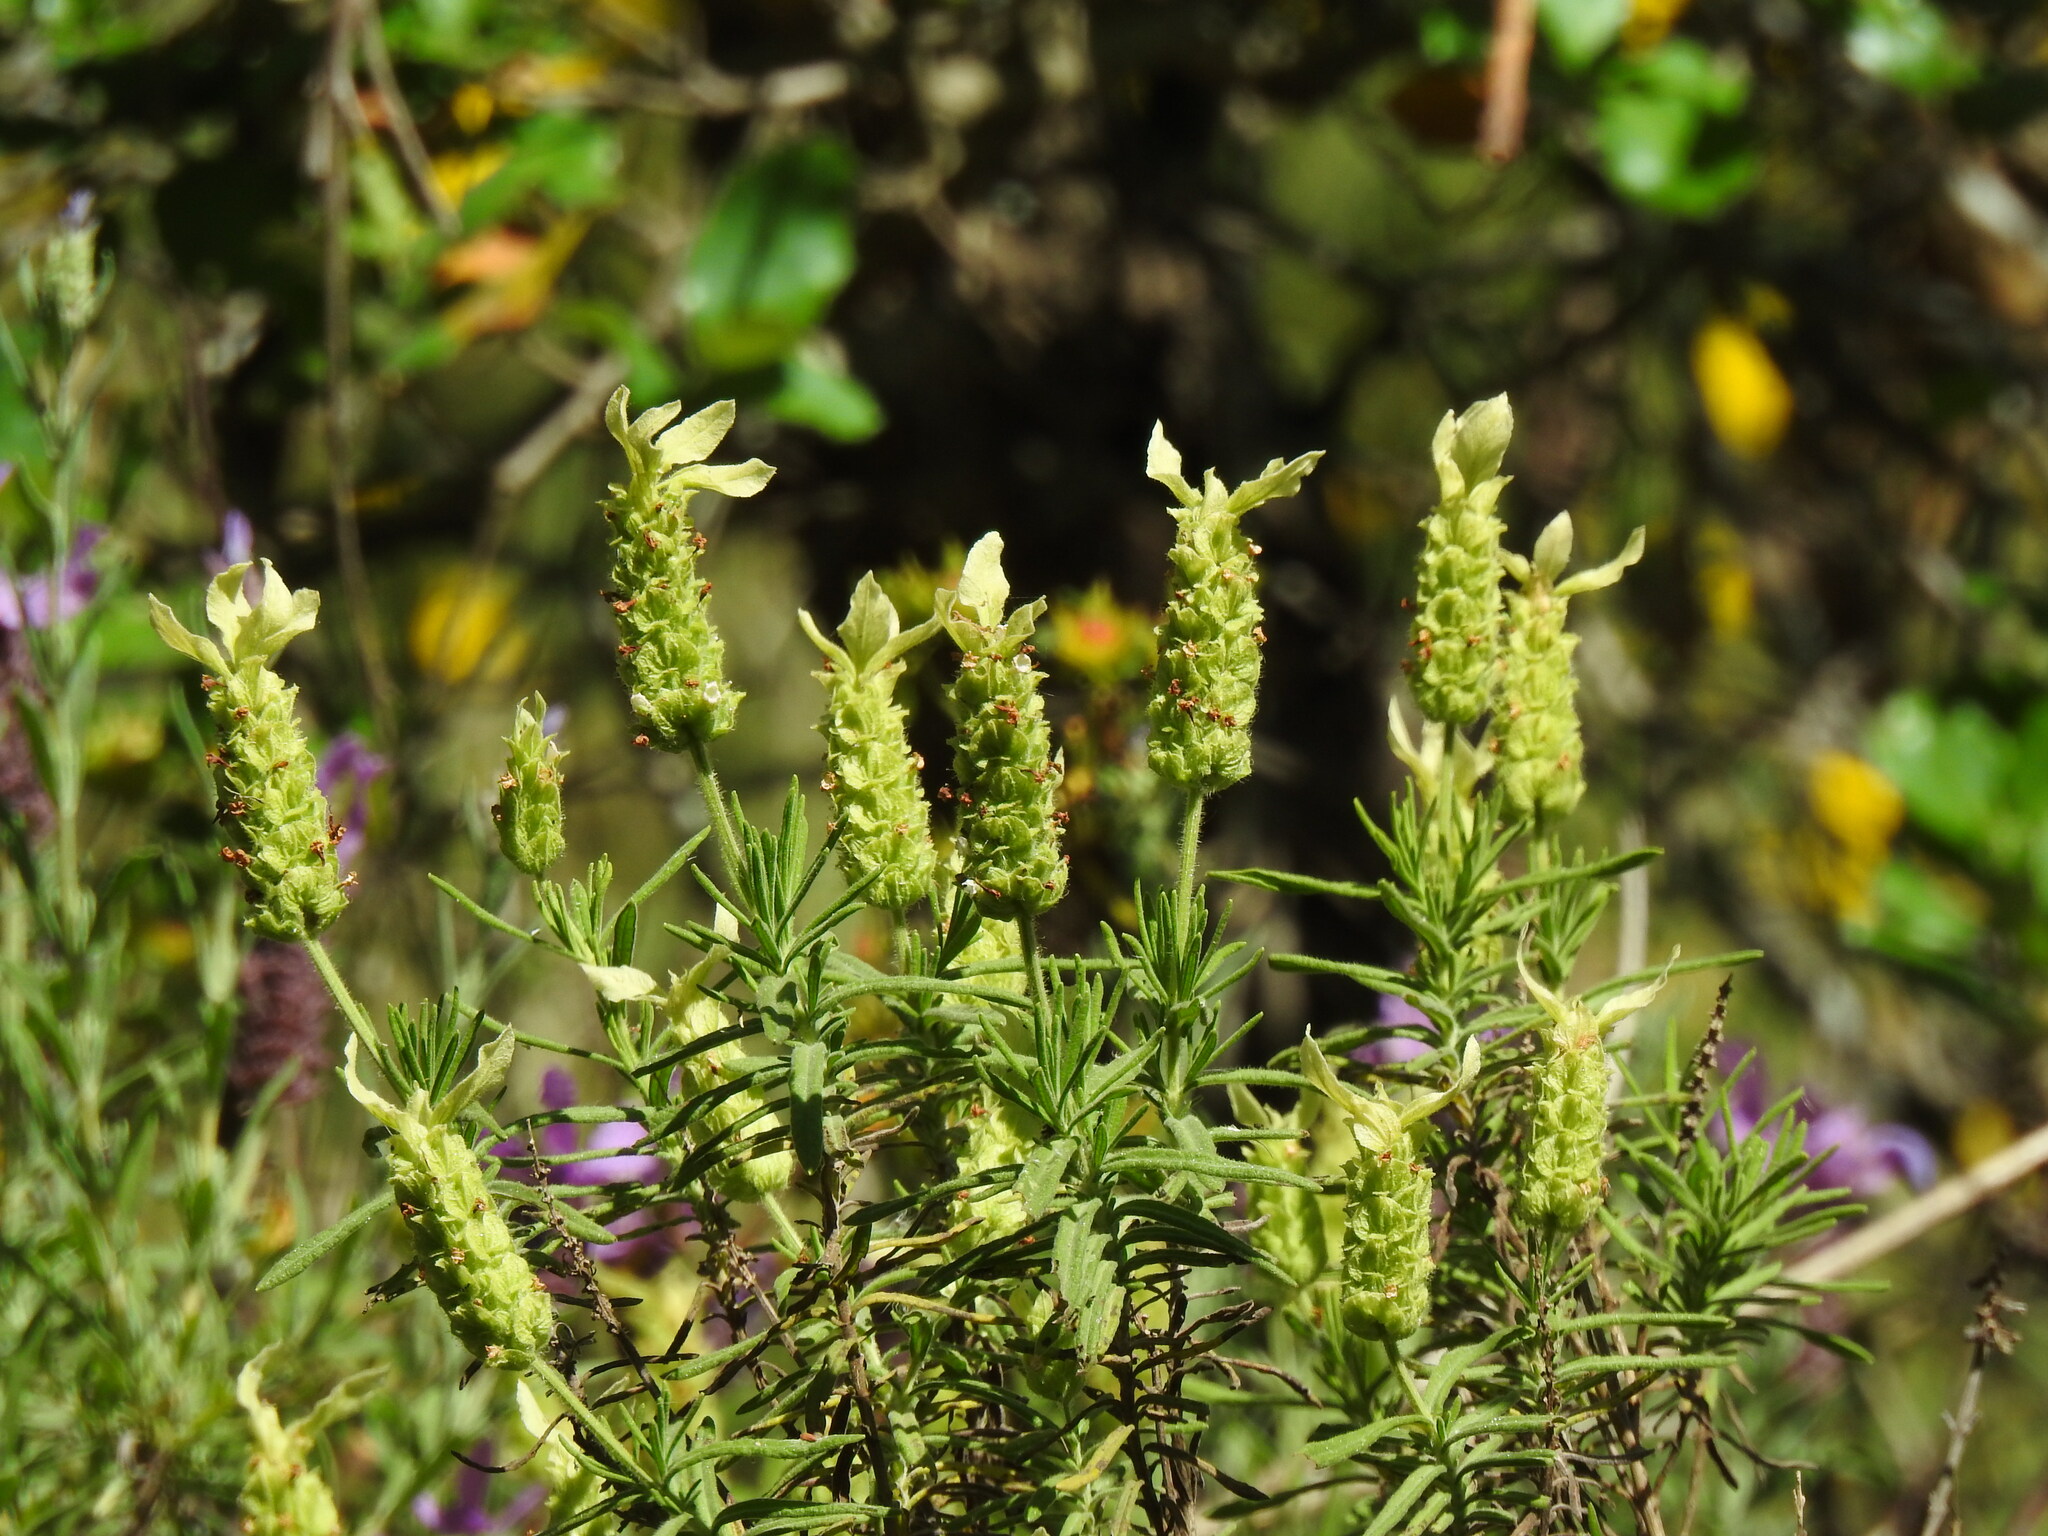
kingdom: Plantae
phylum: Tracheophyta
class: Magnoliopsida
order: Lamiales
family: Lamiaceae
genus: Lavandula
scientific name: Lavandula viridis
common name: Green spanish lavender
